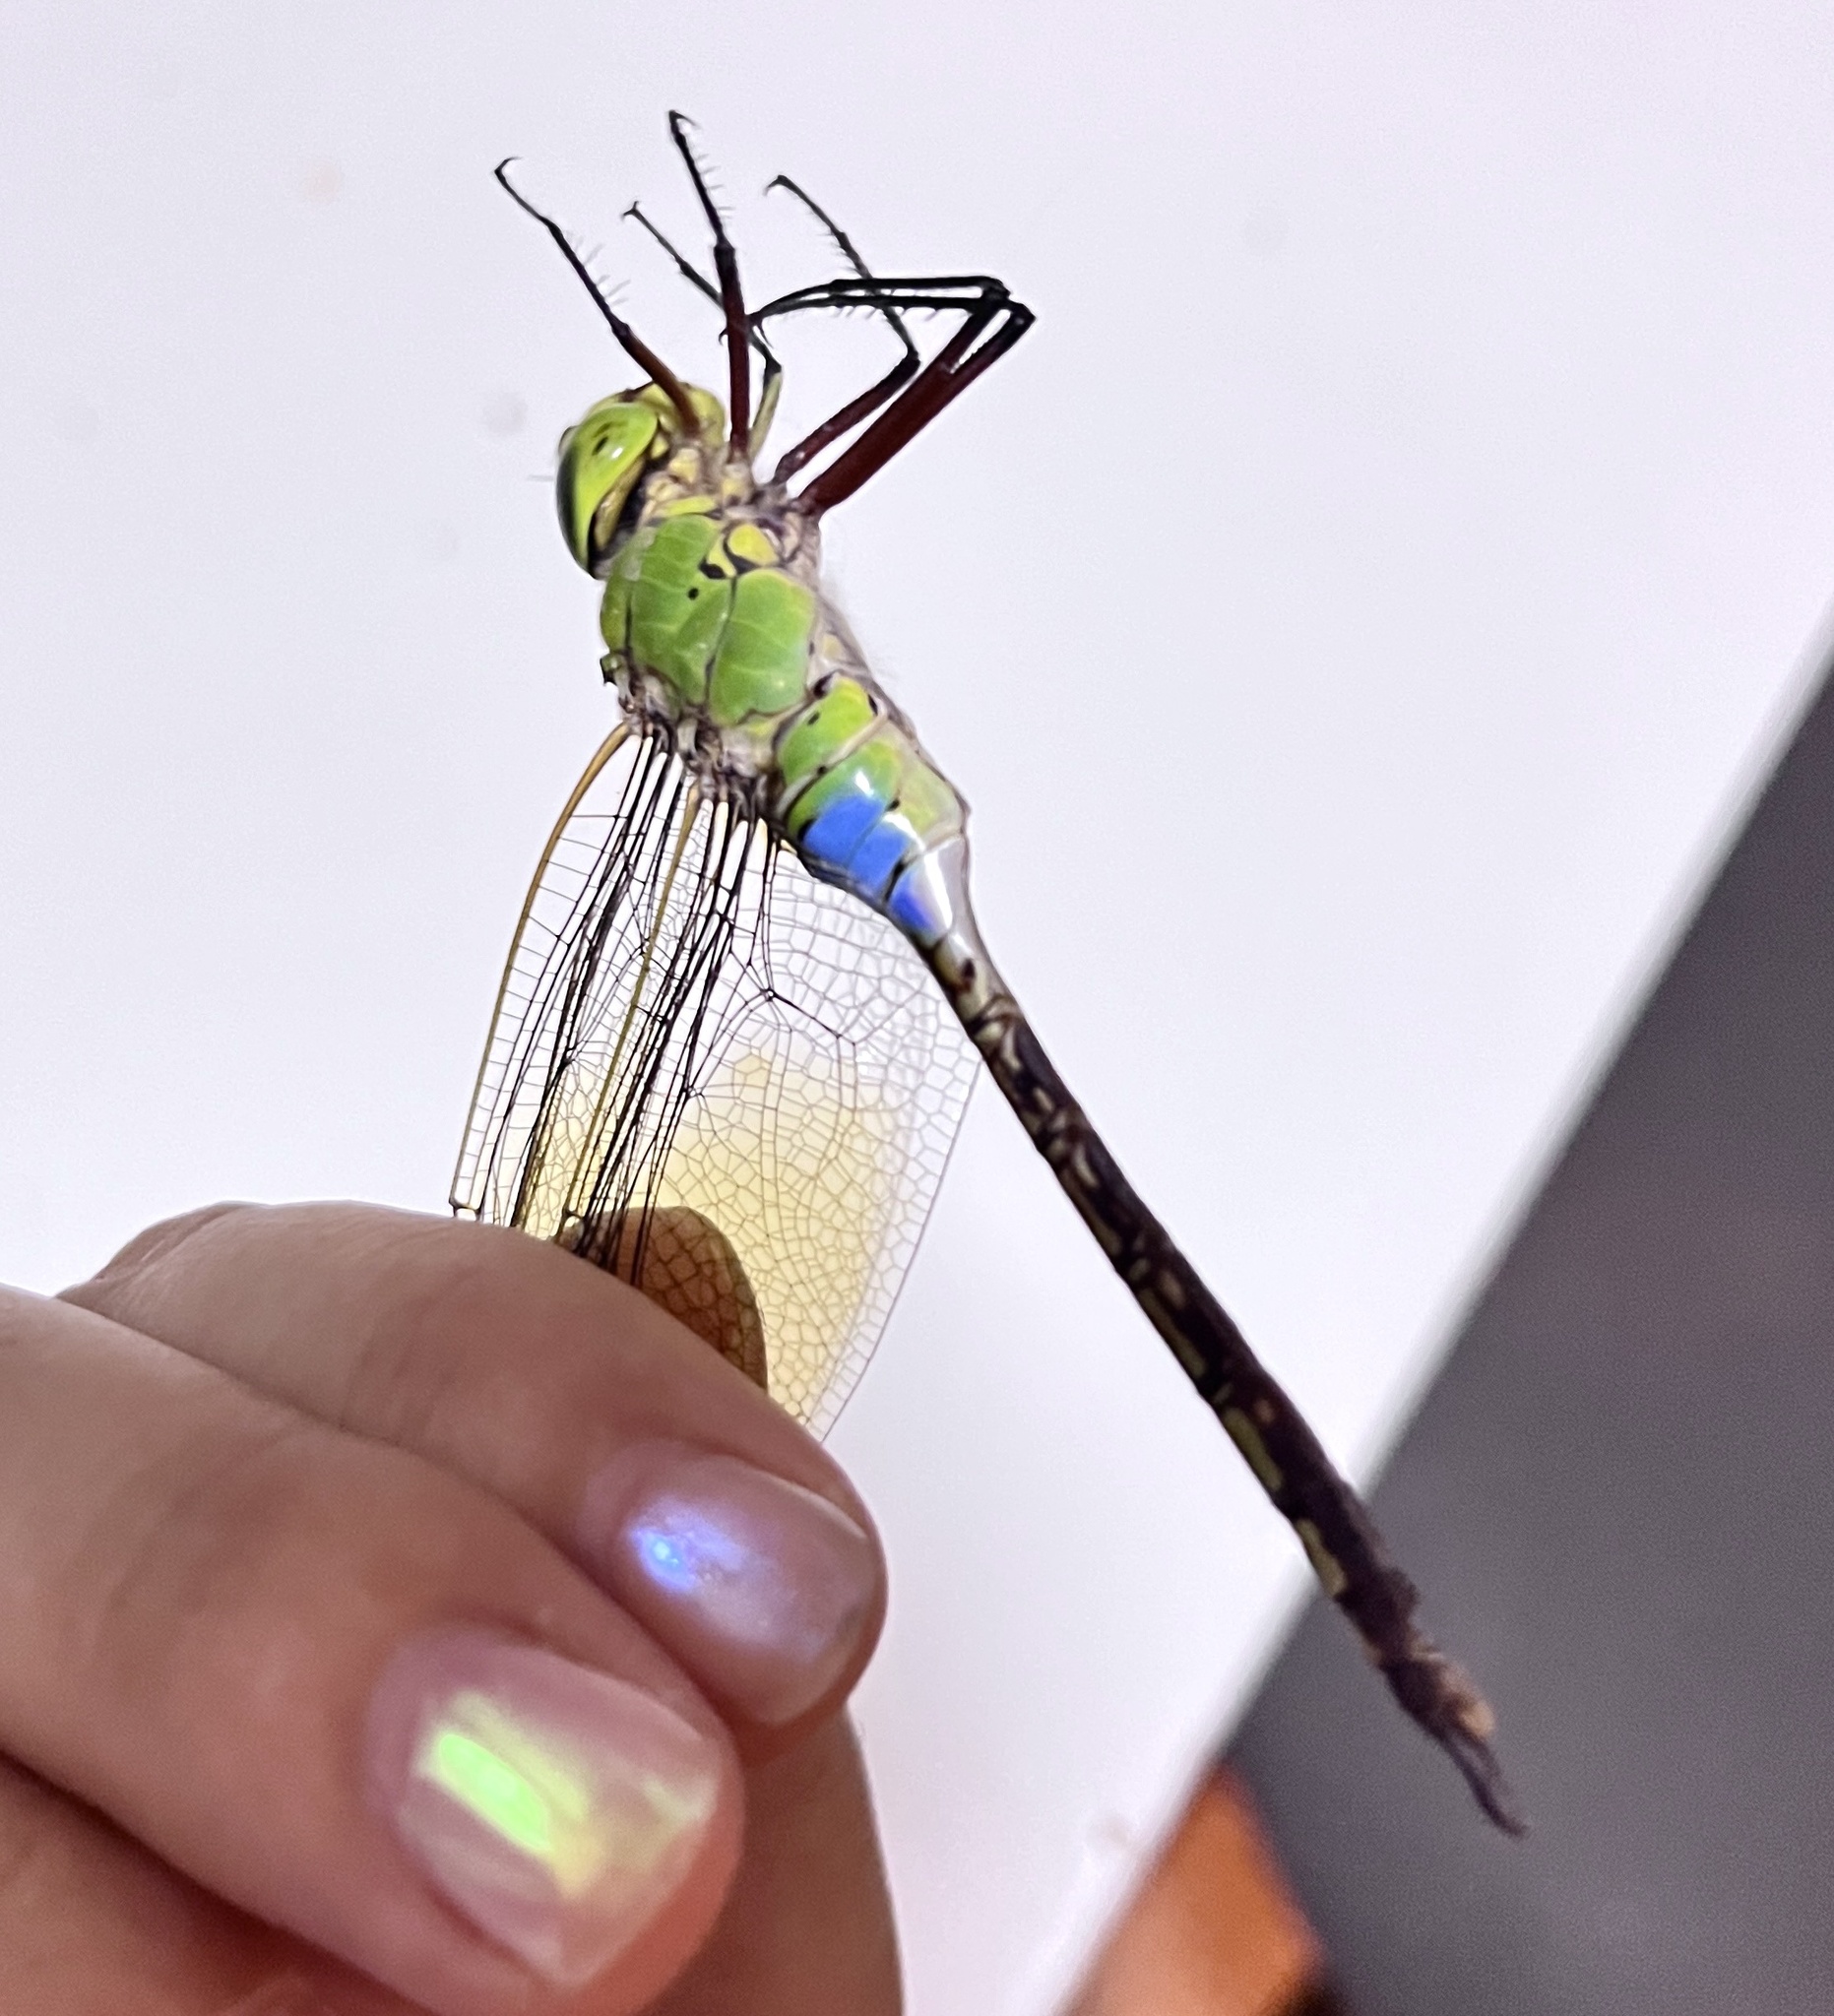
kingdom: Animalia
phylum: Arthropoda
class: Insecta
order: Odonata
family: Aeshnidae
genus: Anax
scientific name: Anax julius
